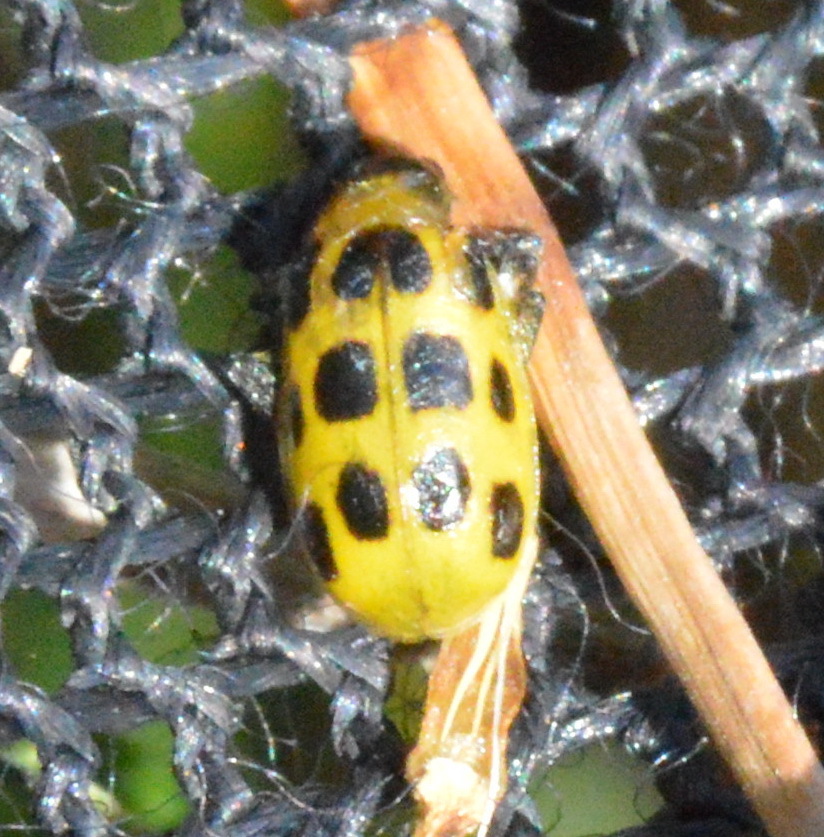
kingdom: Animalia
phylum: Arthropoda
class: Insecta
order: Coleoptera
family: Chrysomelidae
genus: Diabrotica
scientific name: Diabrotica undecimpunctata
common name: Spotted cucumber beetle
